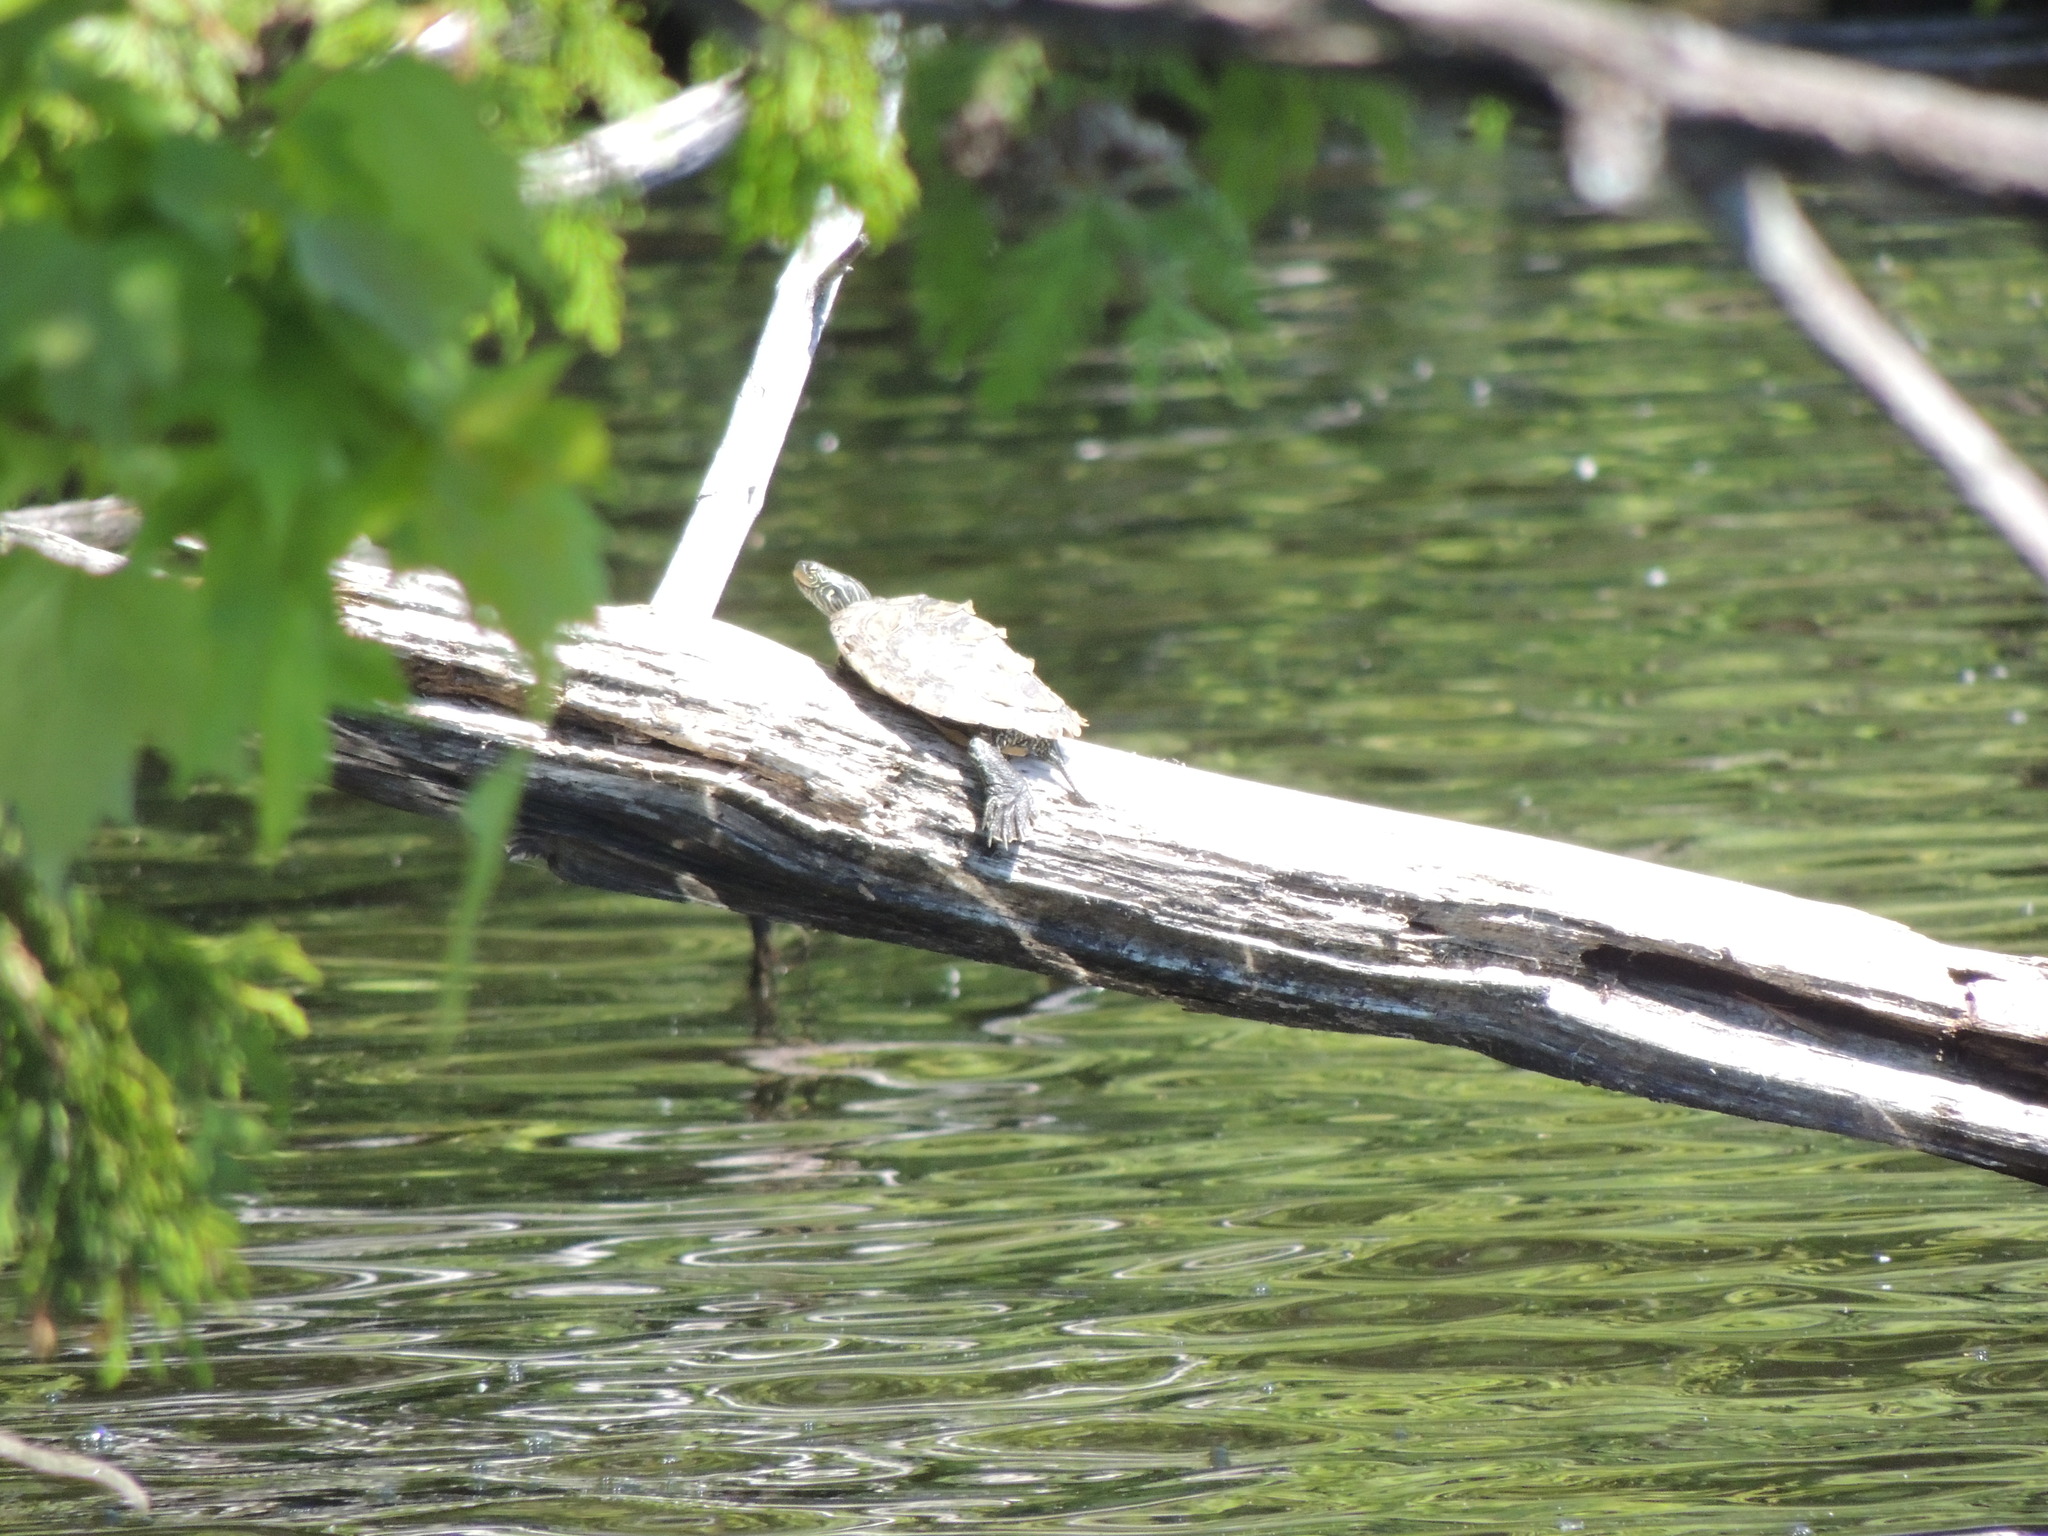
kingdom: Animalia
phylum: Chordata
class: Testudines
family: Emydidae
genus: Graptemys
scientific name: Graptemys geographica
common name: Common map turtle
